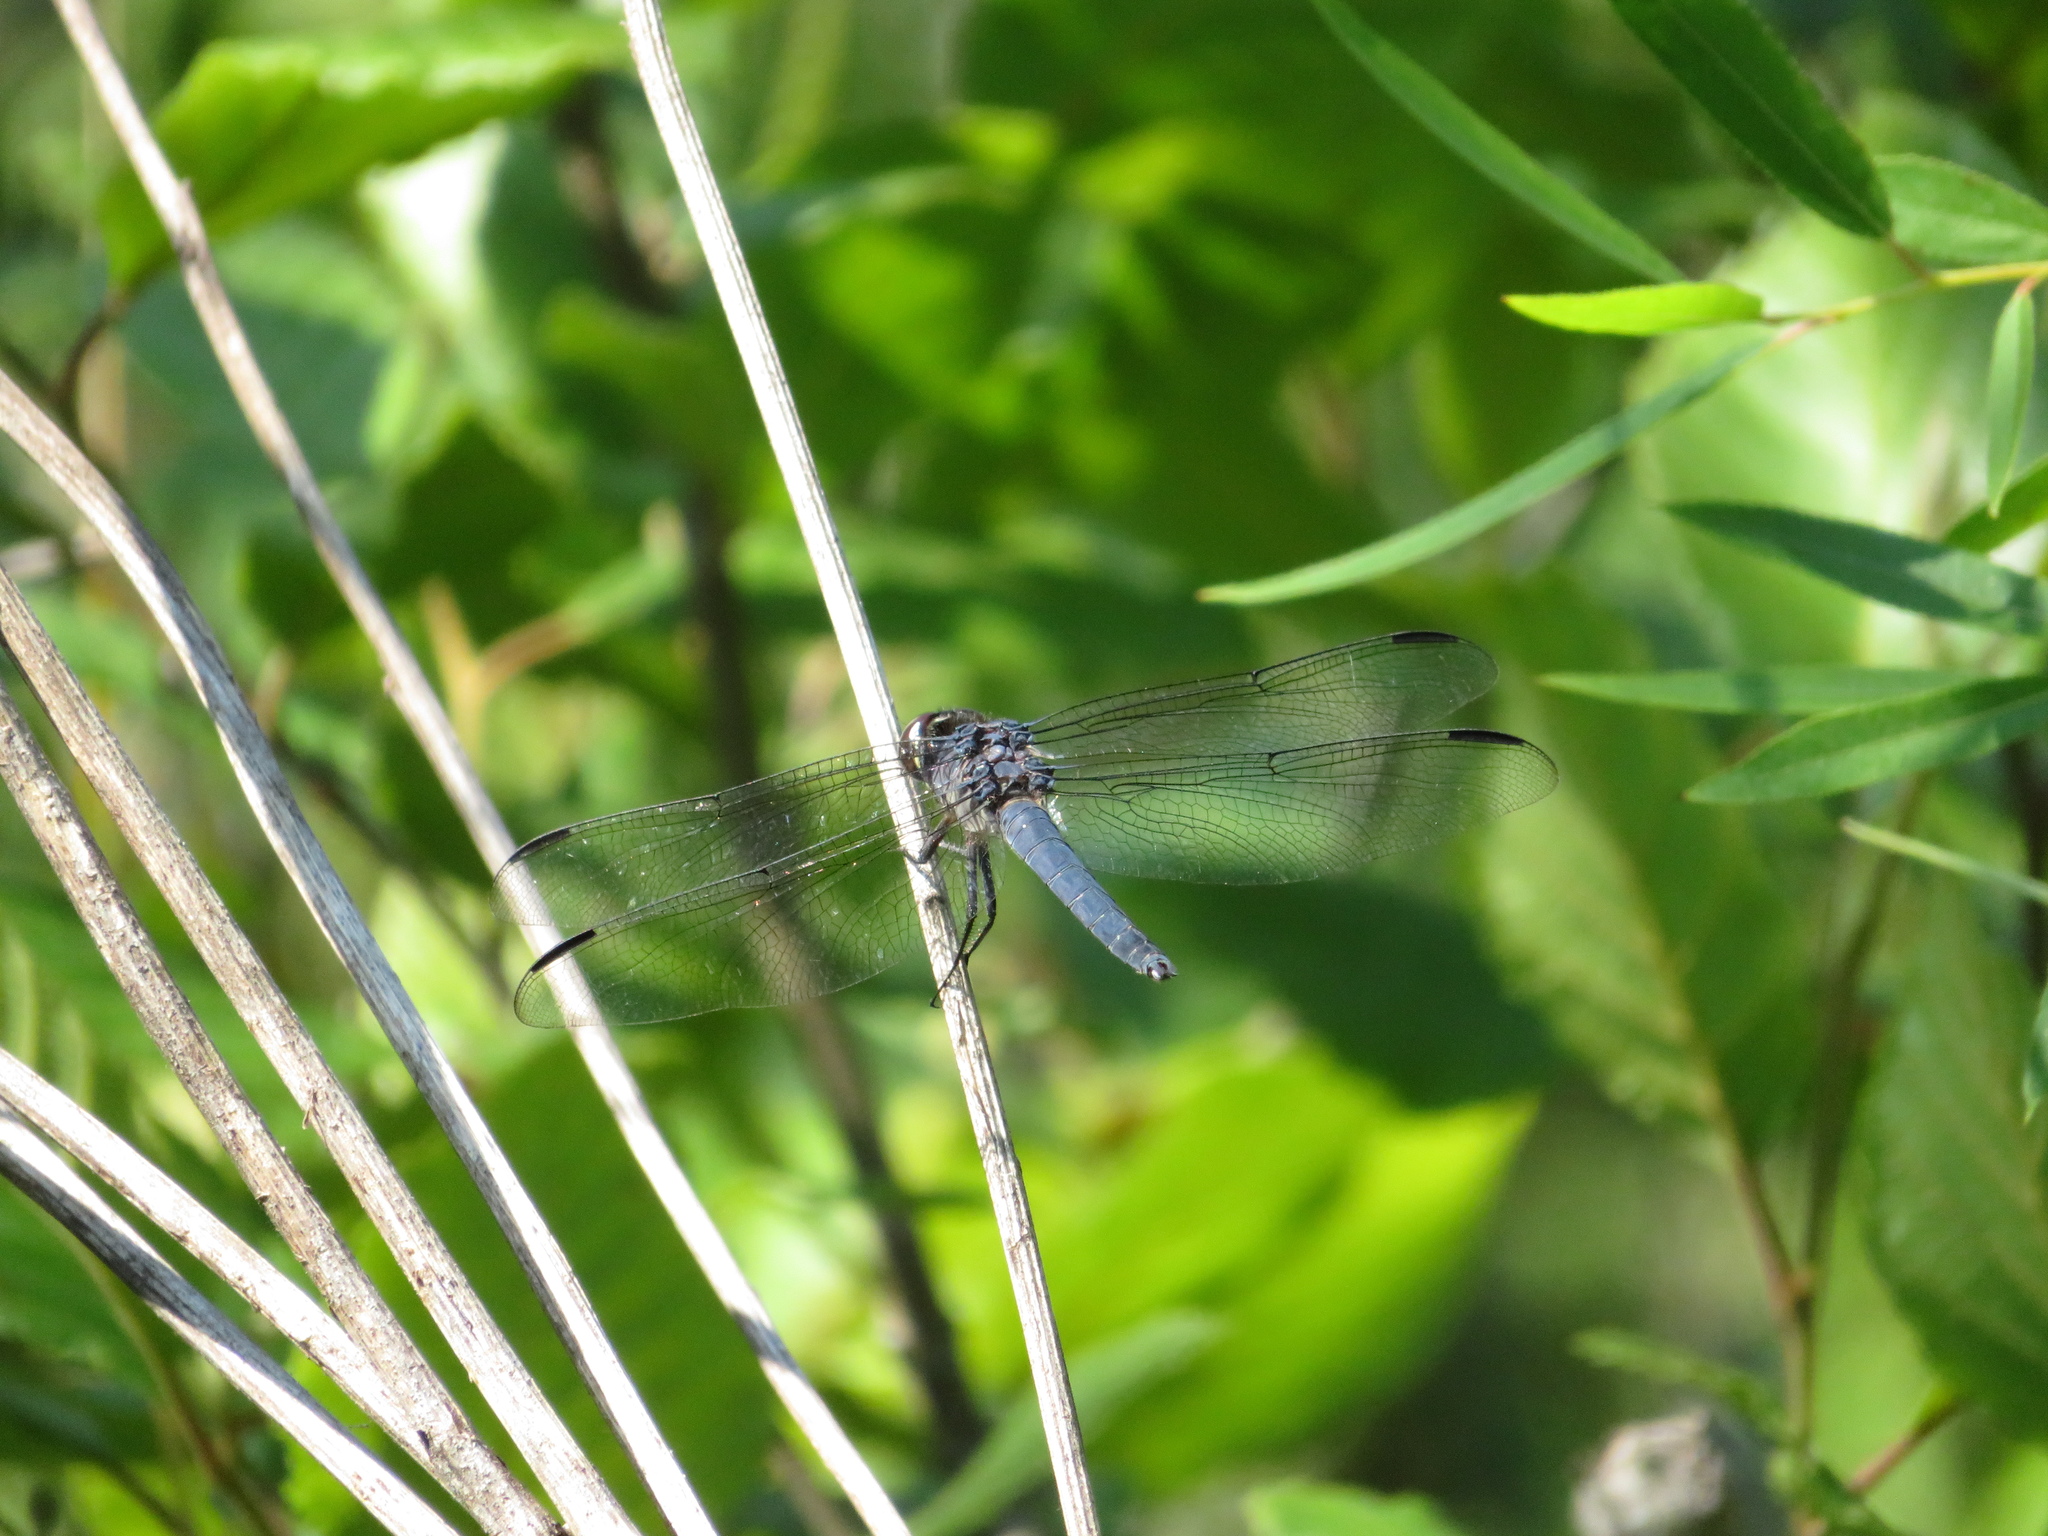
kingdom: Animalia
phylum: Arthropoda
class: Insecta
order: Odonata
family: Libellulidae
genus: Libellula
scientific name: Libellula incesta
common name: Slaty skimmer
